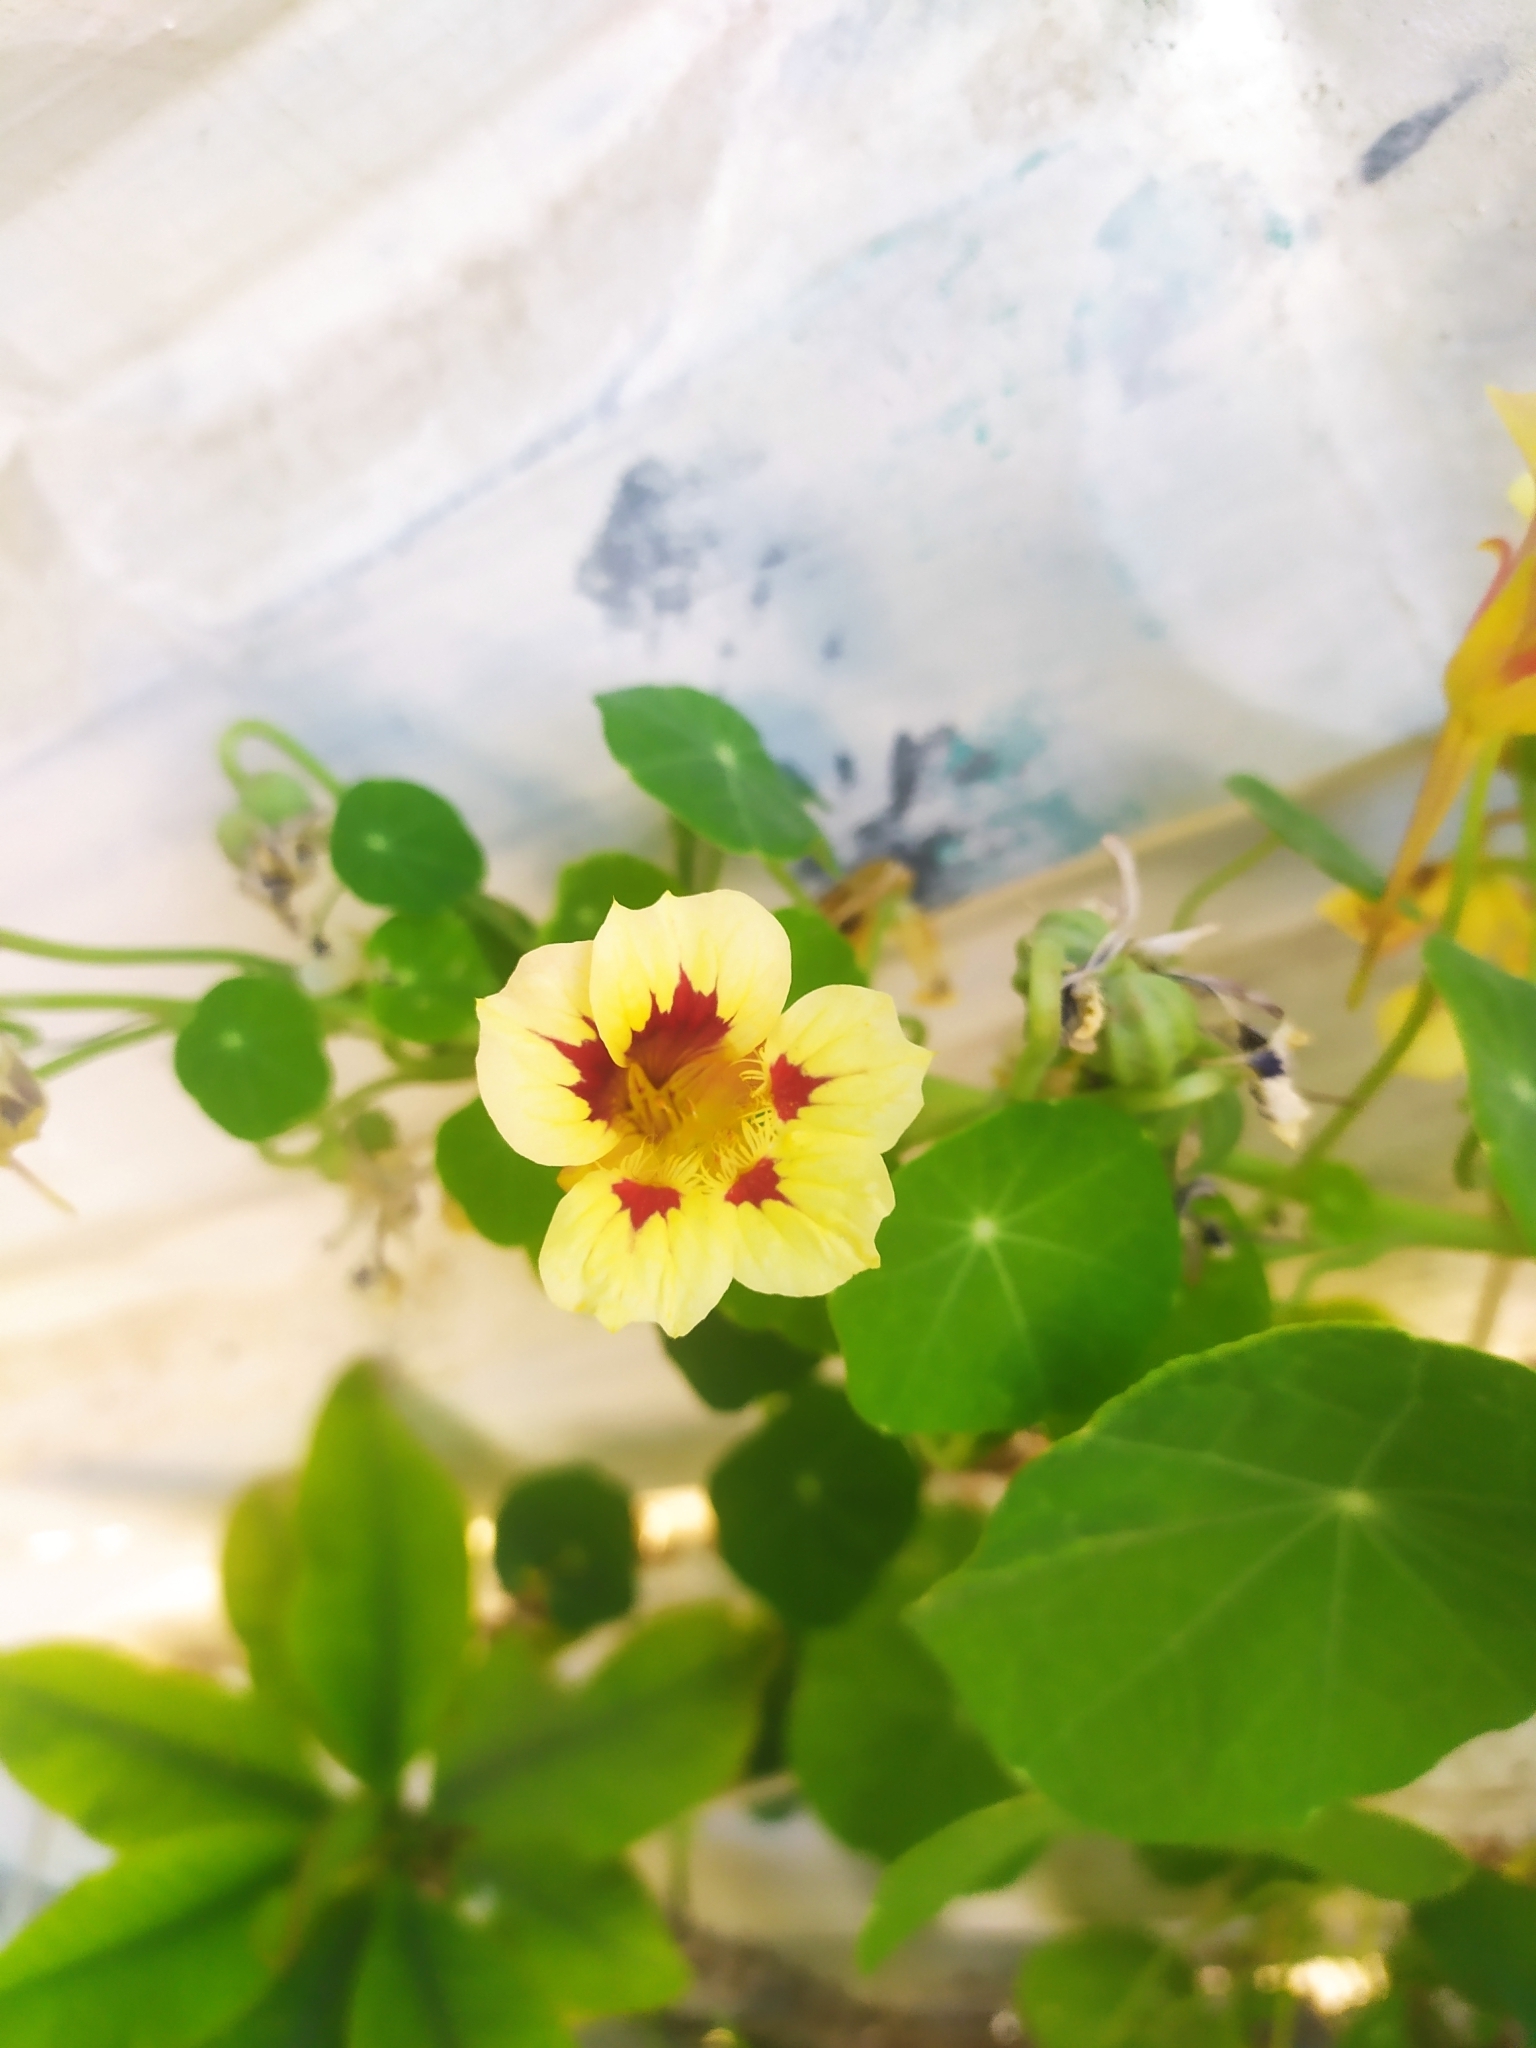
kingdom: Plantae
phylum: Tracheophyta
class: Magnoliopsida
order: Brassicales
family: Tropaeolaceae
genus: Tropaeolum
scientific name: Tropaeolum majus
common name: Nasturtium
